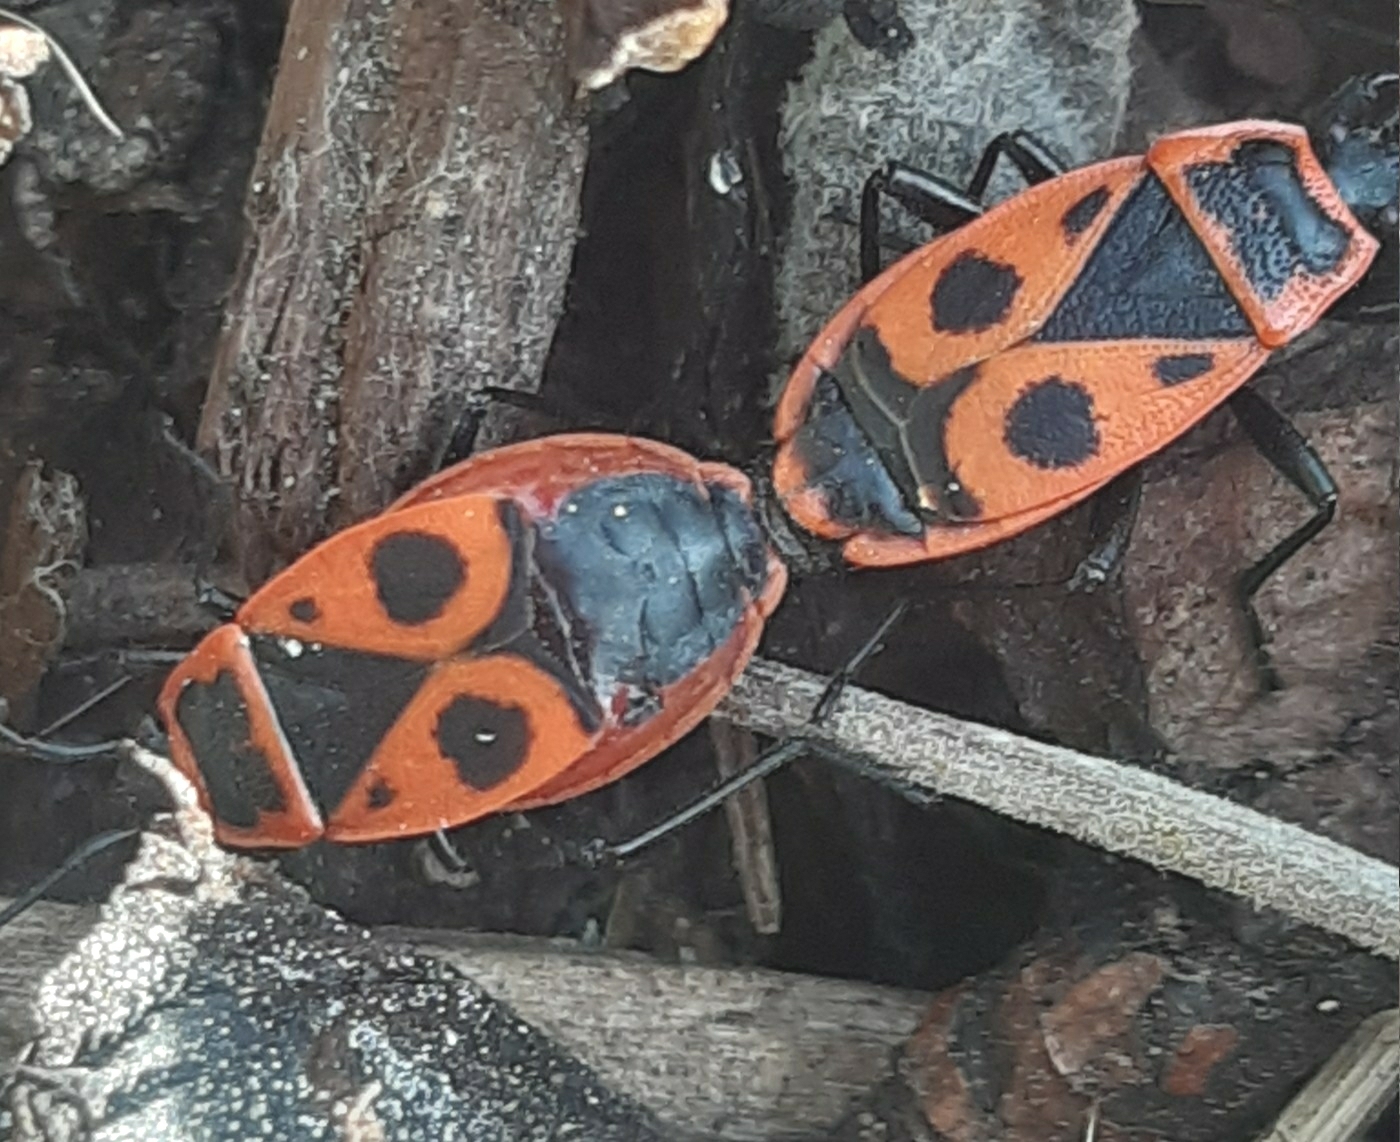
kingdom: Animalia
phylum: Arthropoda
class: Insecta
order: Hemiptera
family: Pyrrhocoridae
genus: Pyrrhocoris
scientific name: Pyrrhocoris apterus
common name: Firebug
